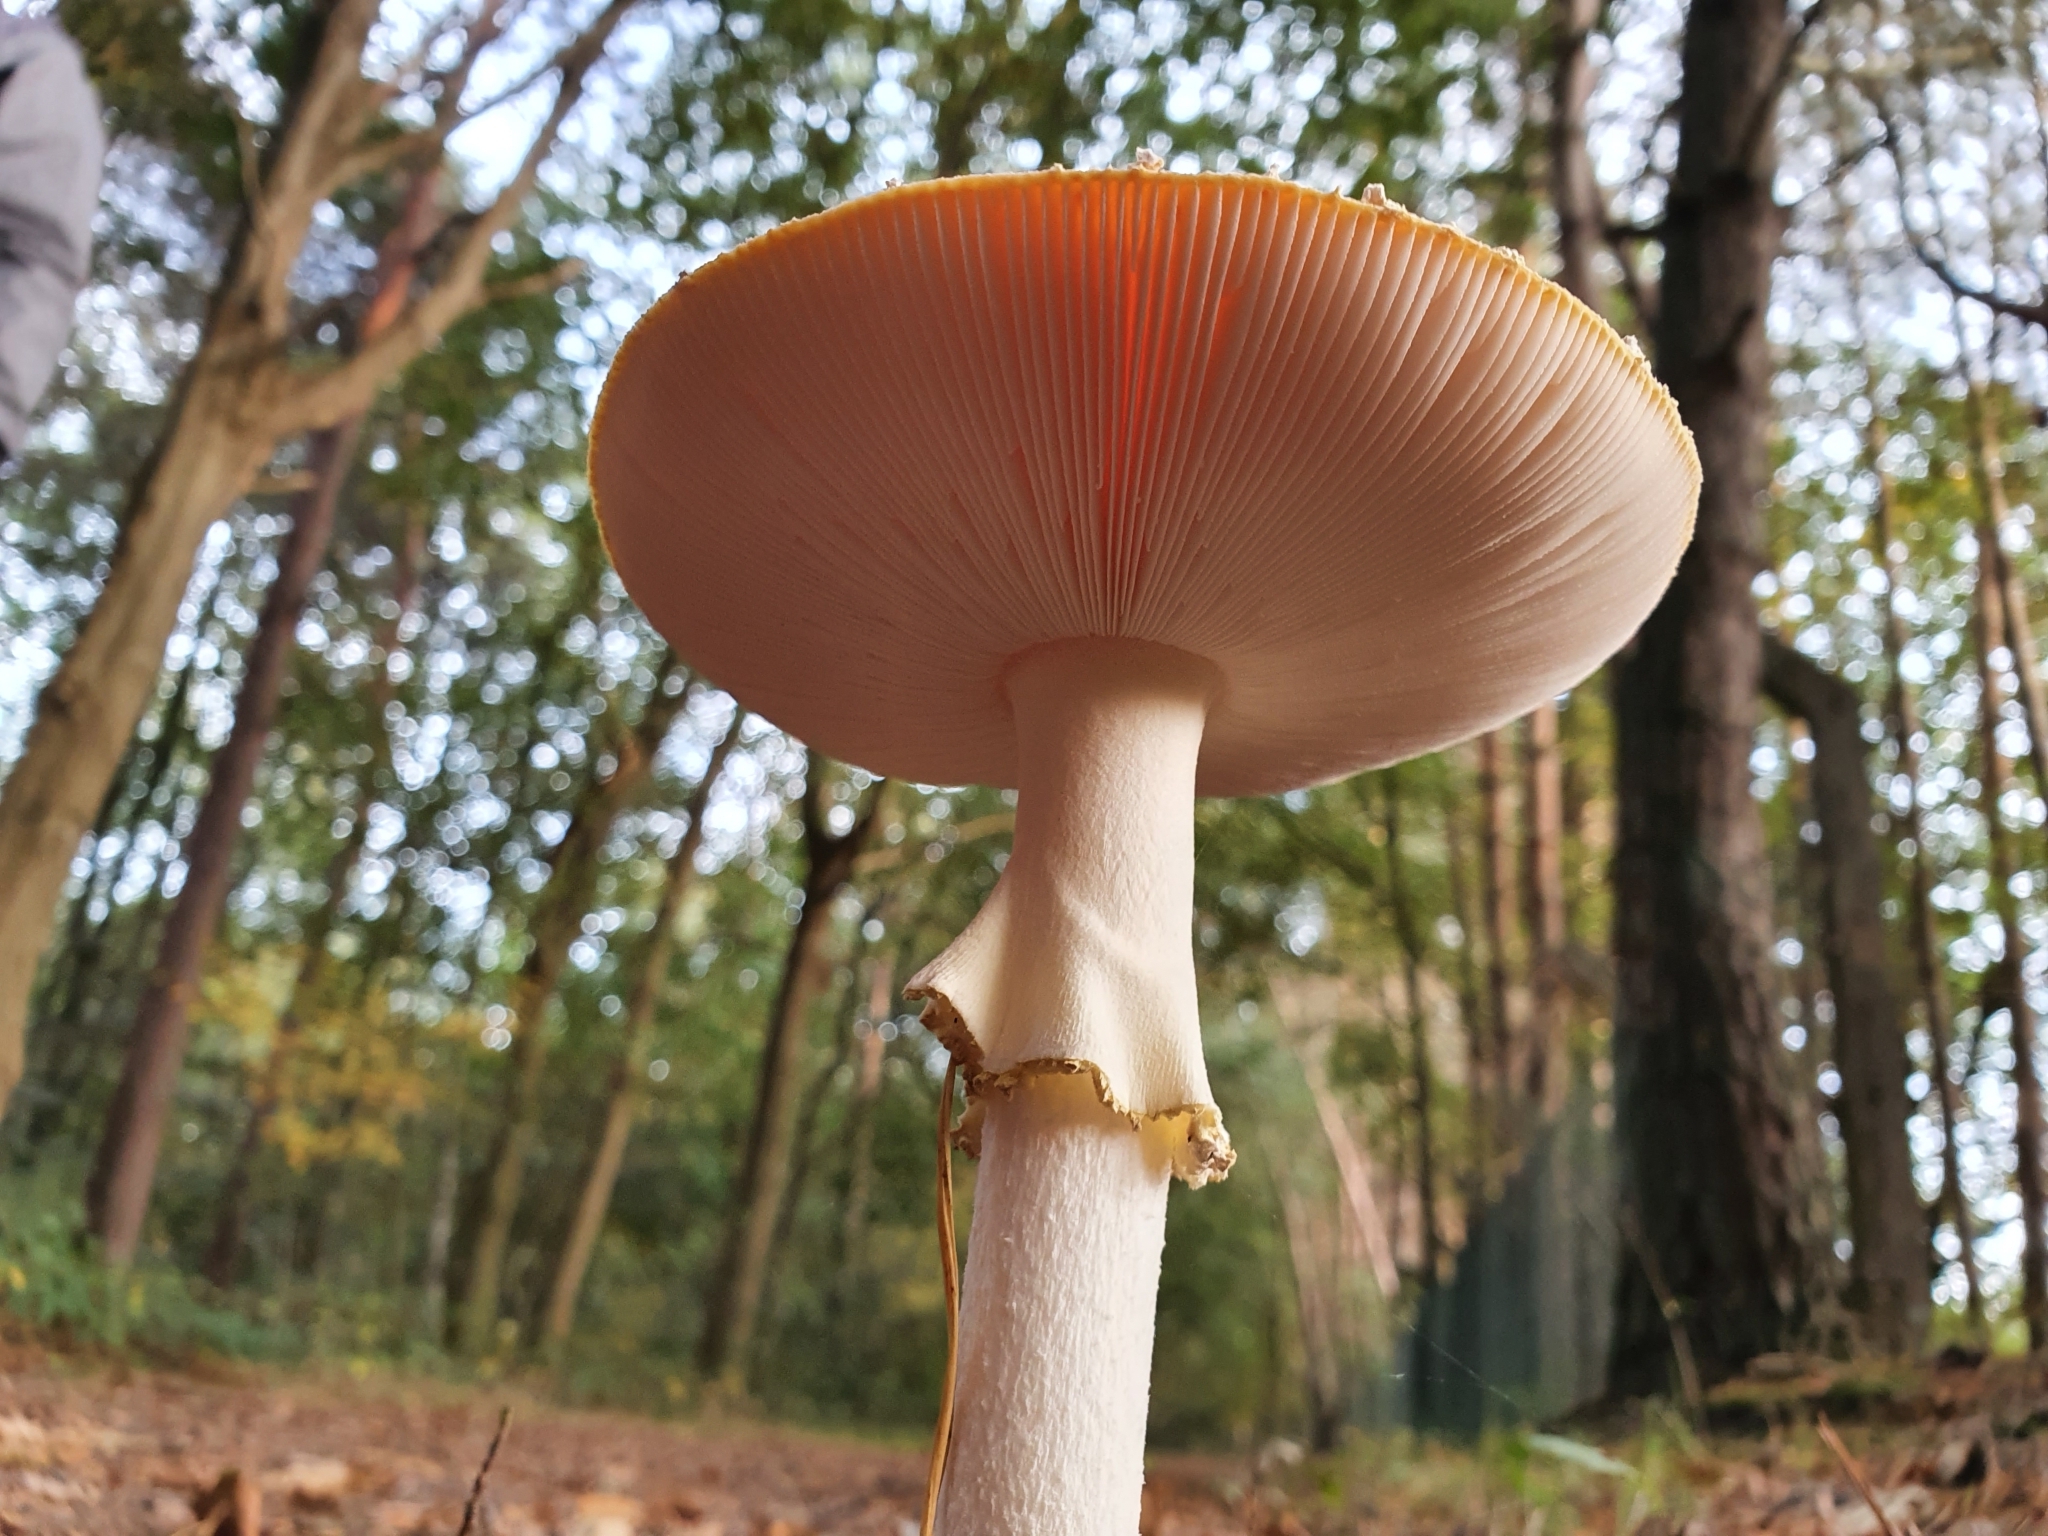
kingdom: Fungi
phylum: Basidiomycota
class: Agaricomycetes
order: Agaricales
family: Amanitaceae
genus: Amanita
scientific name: Amanita muscaria
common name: Fly agaric
